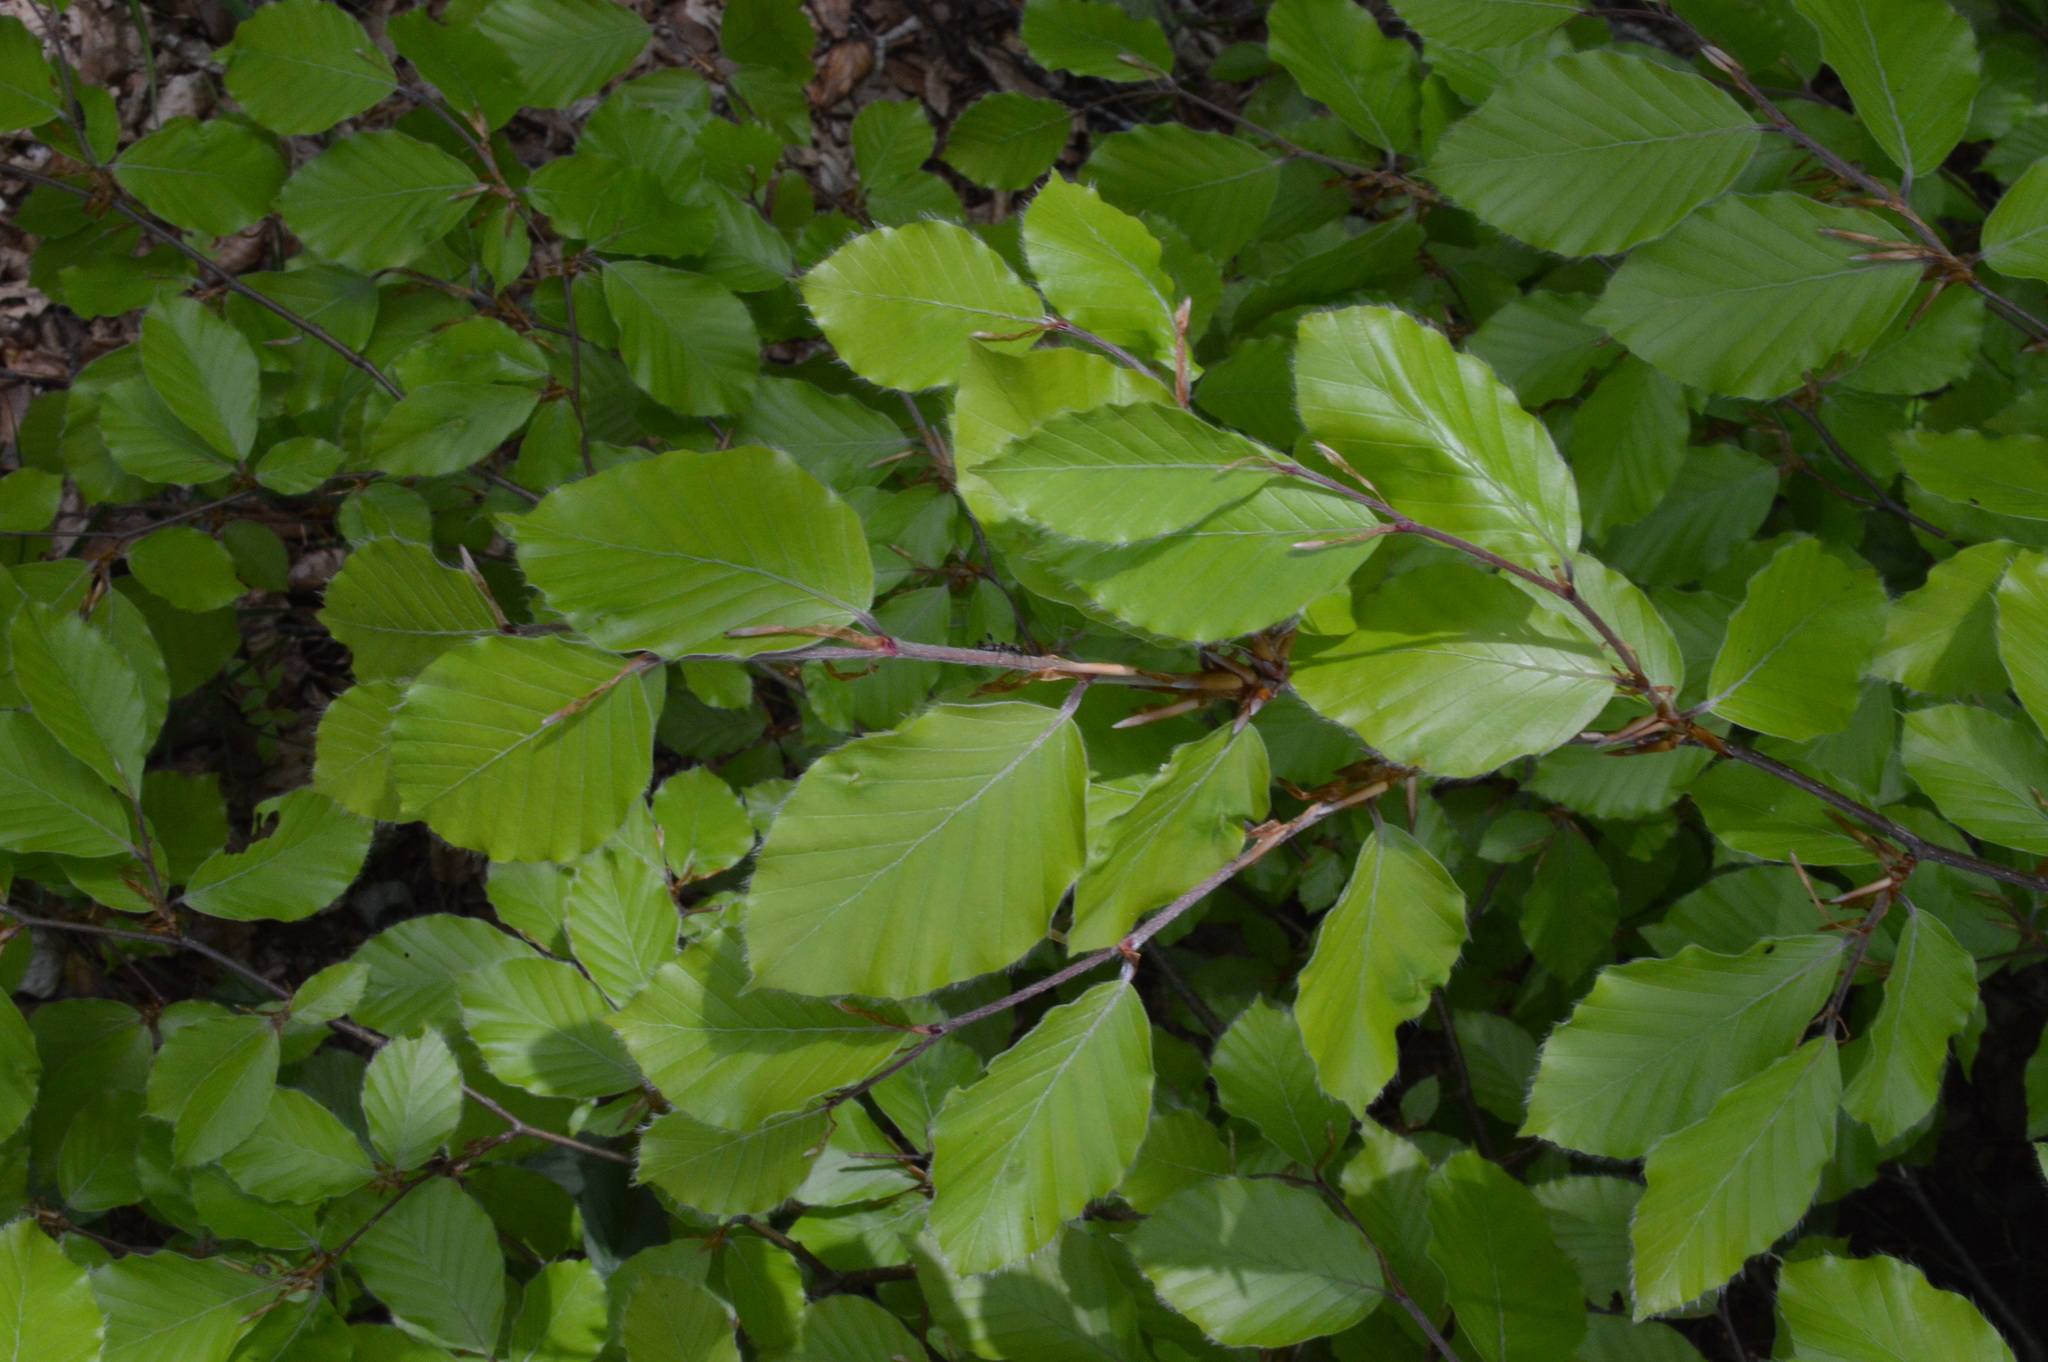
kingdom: Plantae
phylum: Tracheophyta
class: Magnoliopsida
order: Fagales
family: Fagaceae
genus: Fagus
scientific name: Fagus sylvatica
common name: Beech
